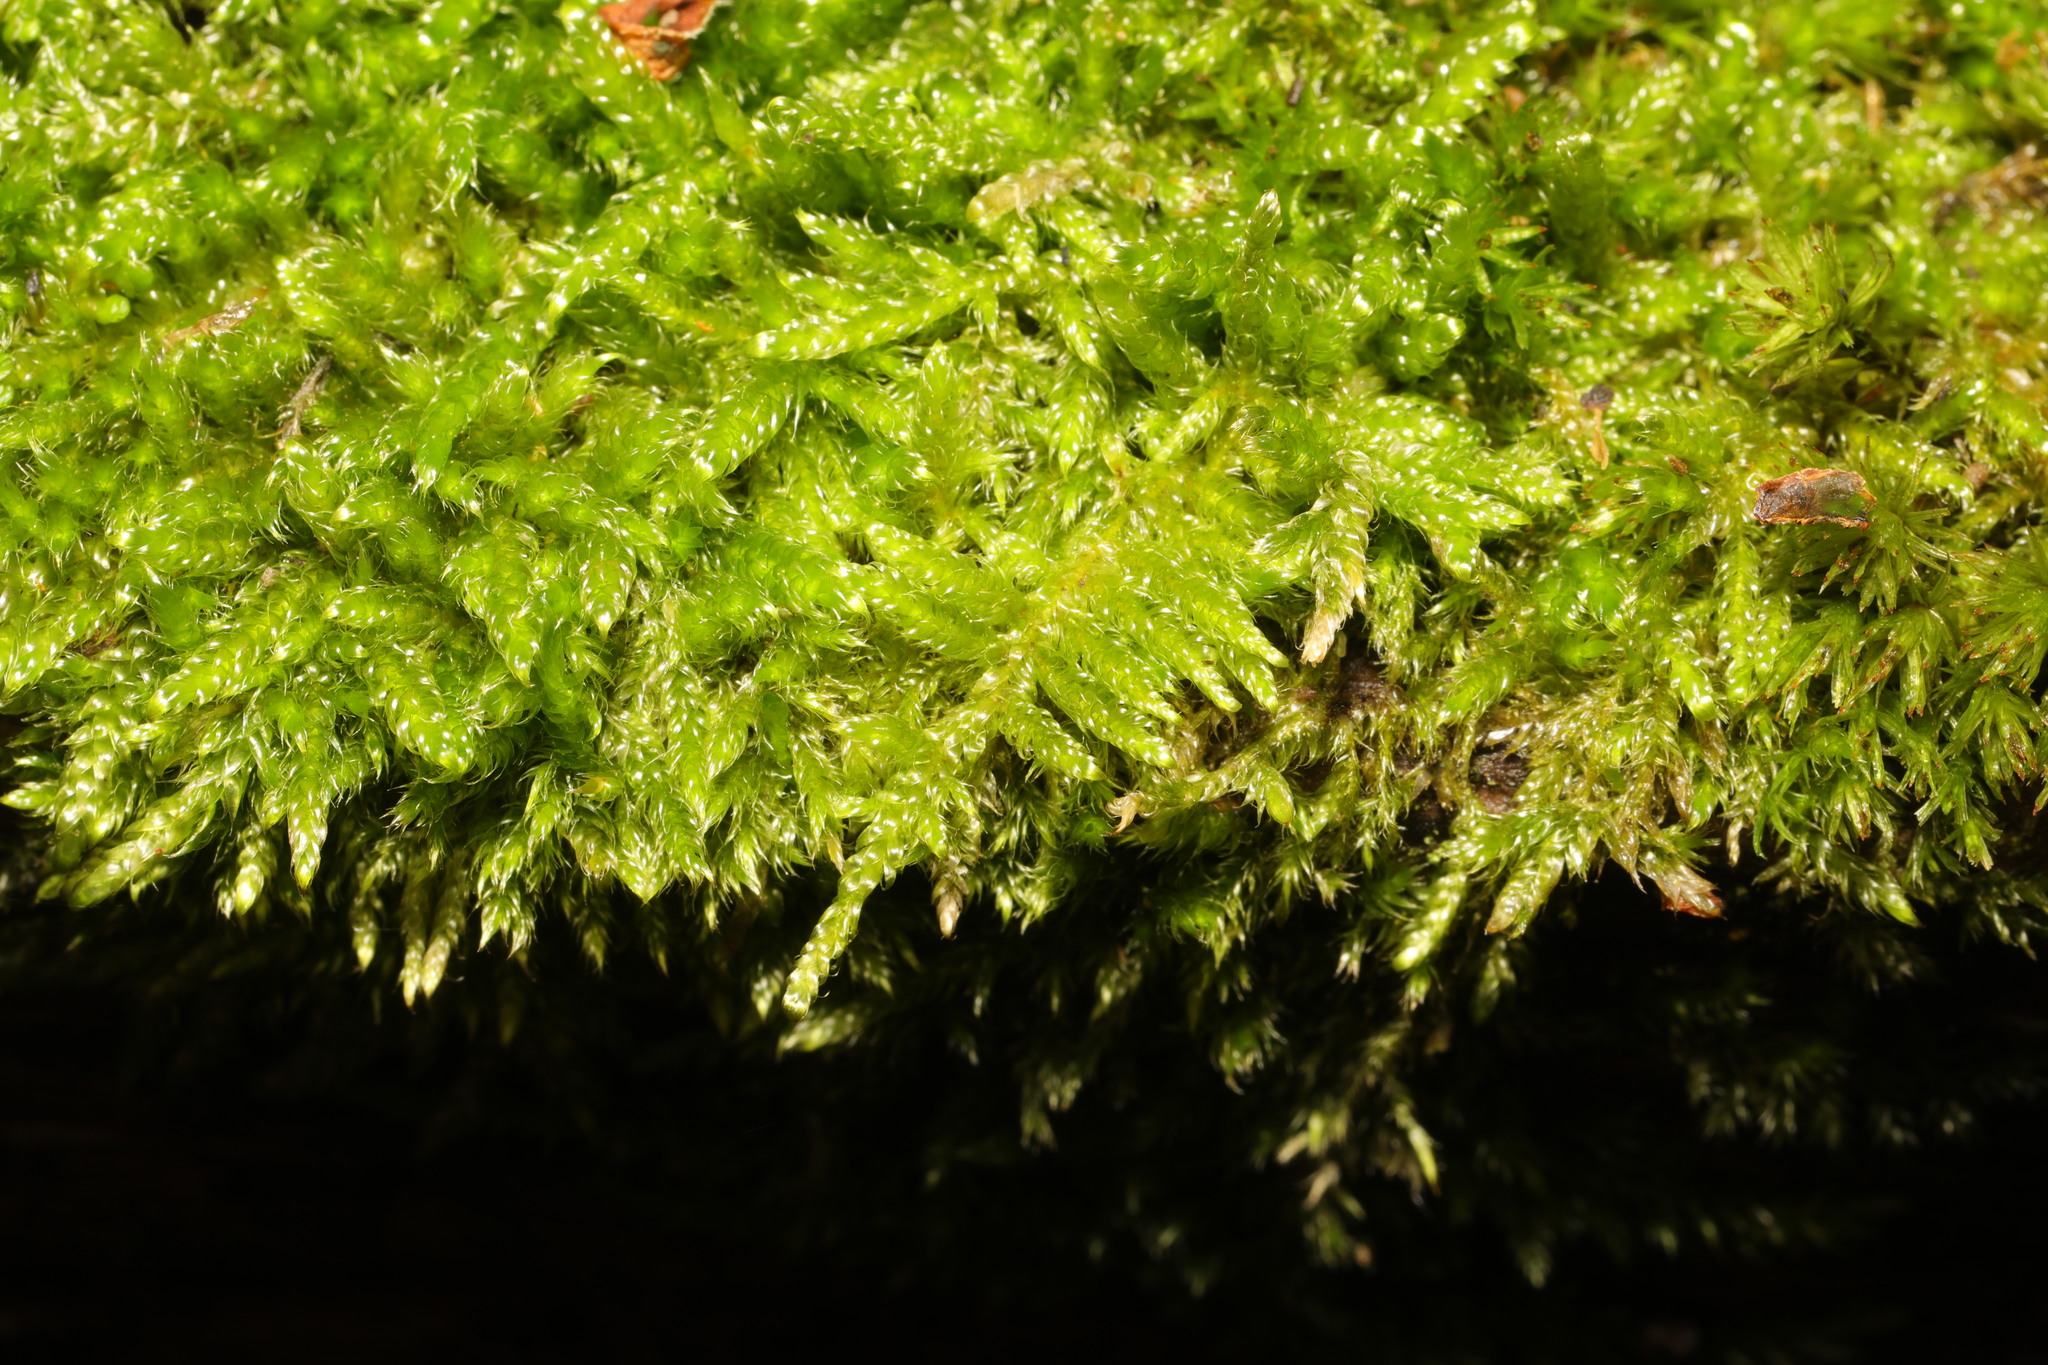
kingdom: Plantae
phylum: Bryophyta
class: Bryopsida
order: Hypnales
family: Hypnaceae
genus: Hypnum
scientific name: Hypnum cupressiforme
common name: Cypress-leaved plait-moss
